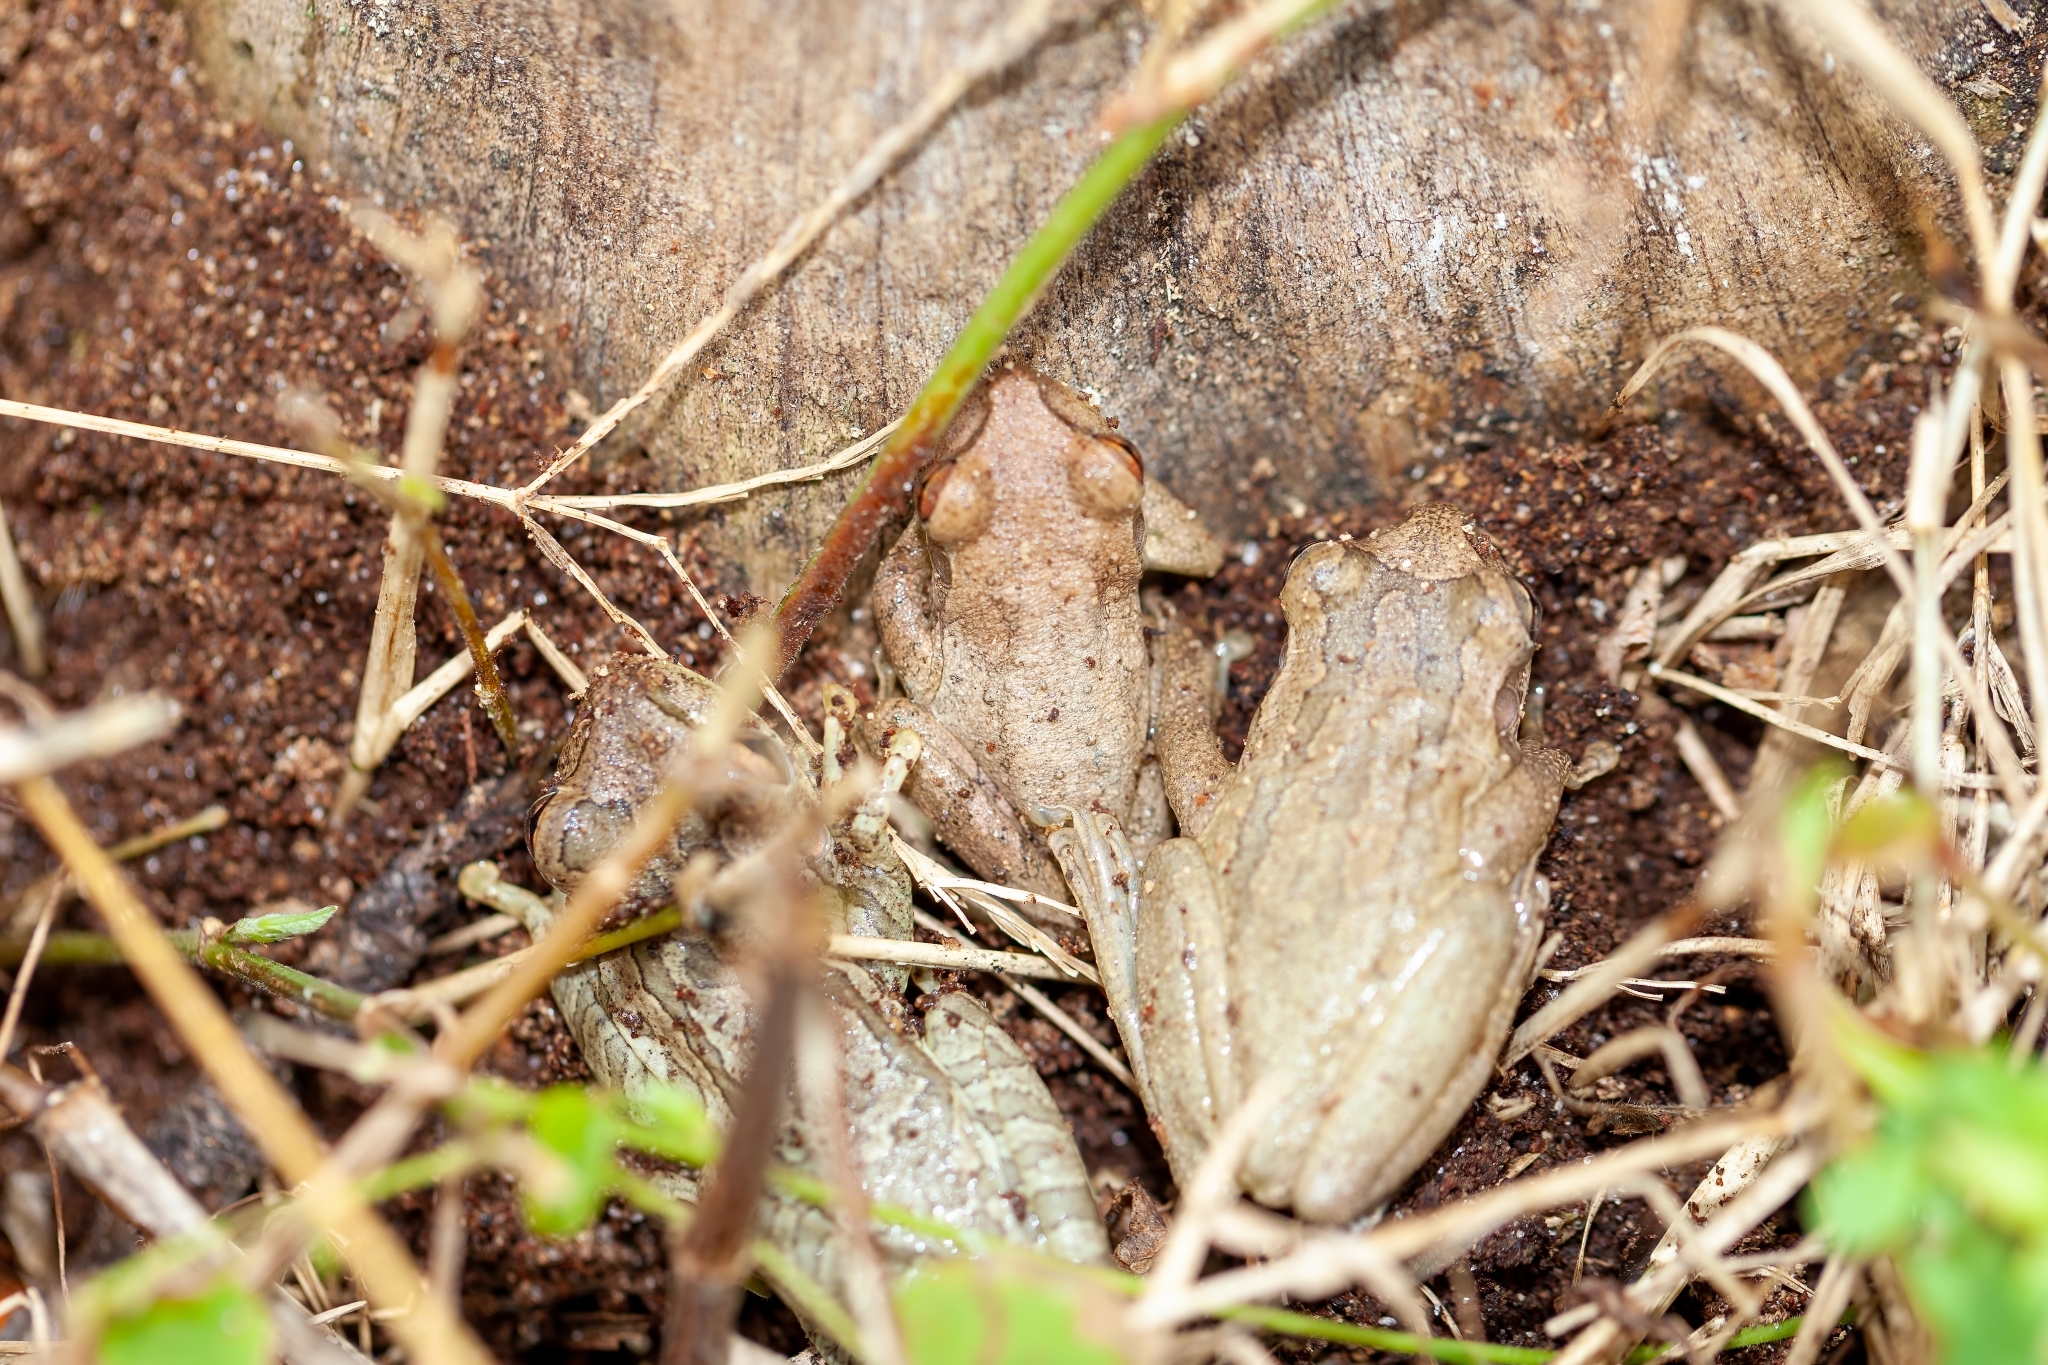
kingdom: Animalia
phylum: Chordata
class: Amphibia
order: Anura
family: Hylidae
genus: Osteopilus
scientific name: Osteopilus septentrionalis
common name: Cuban treefrog
